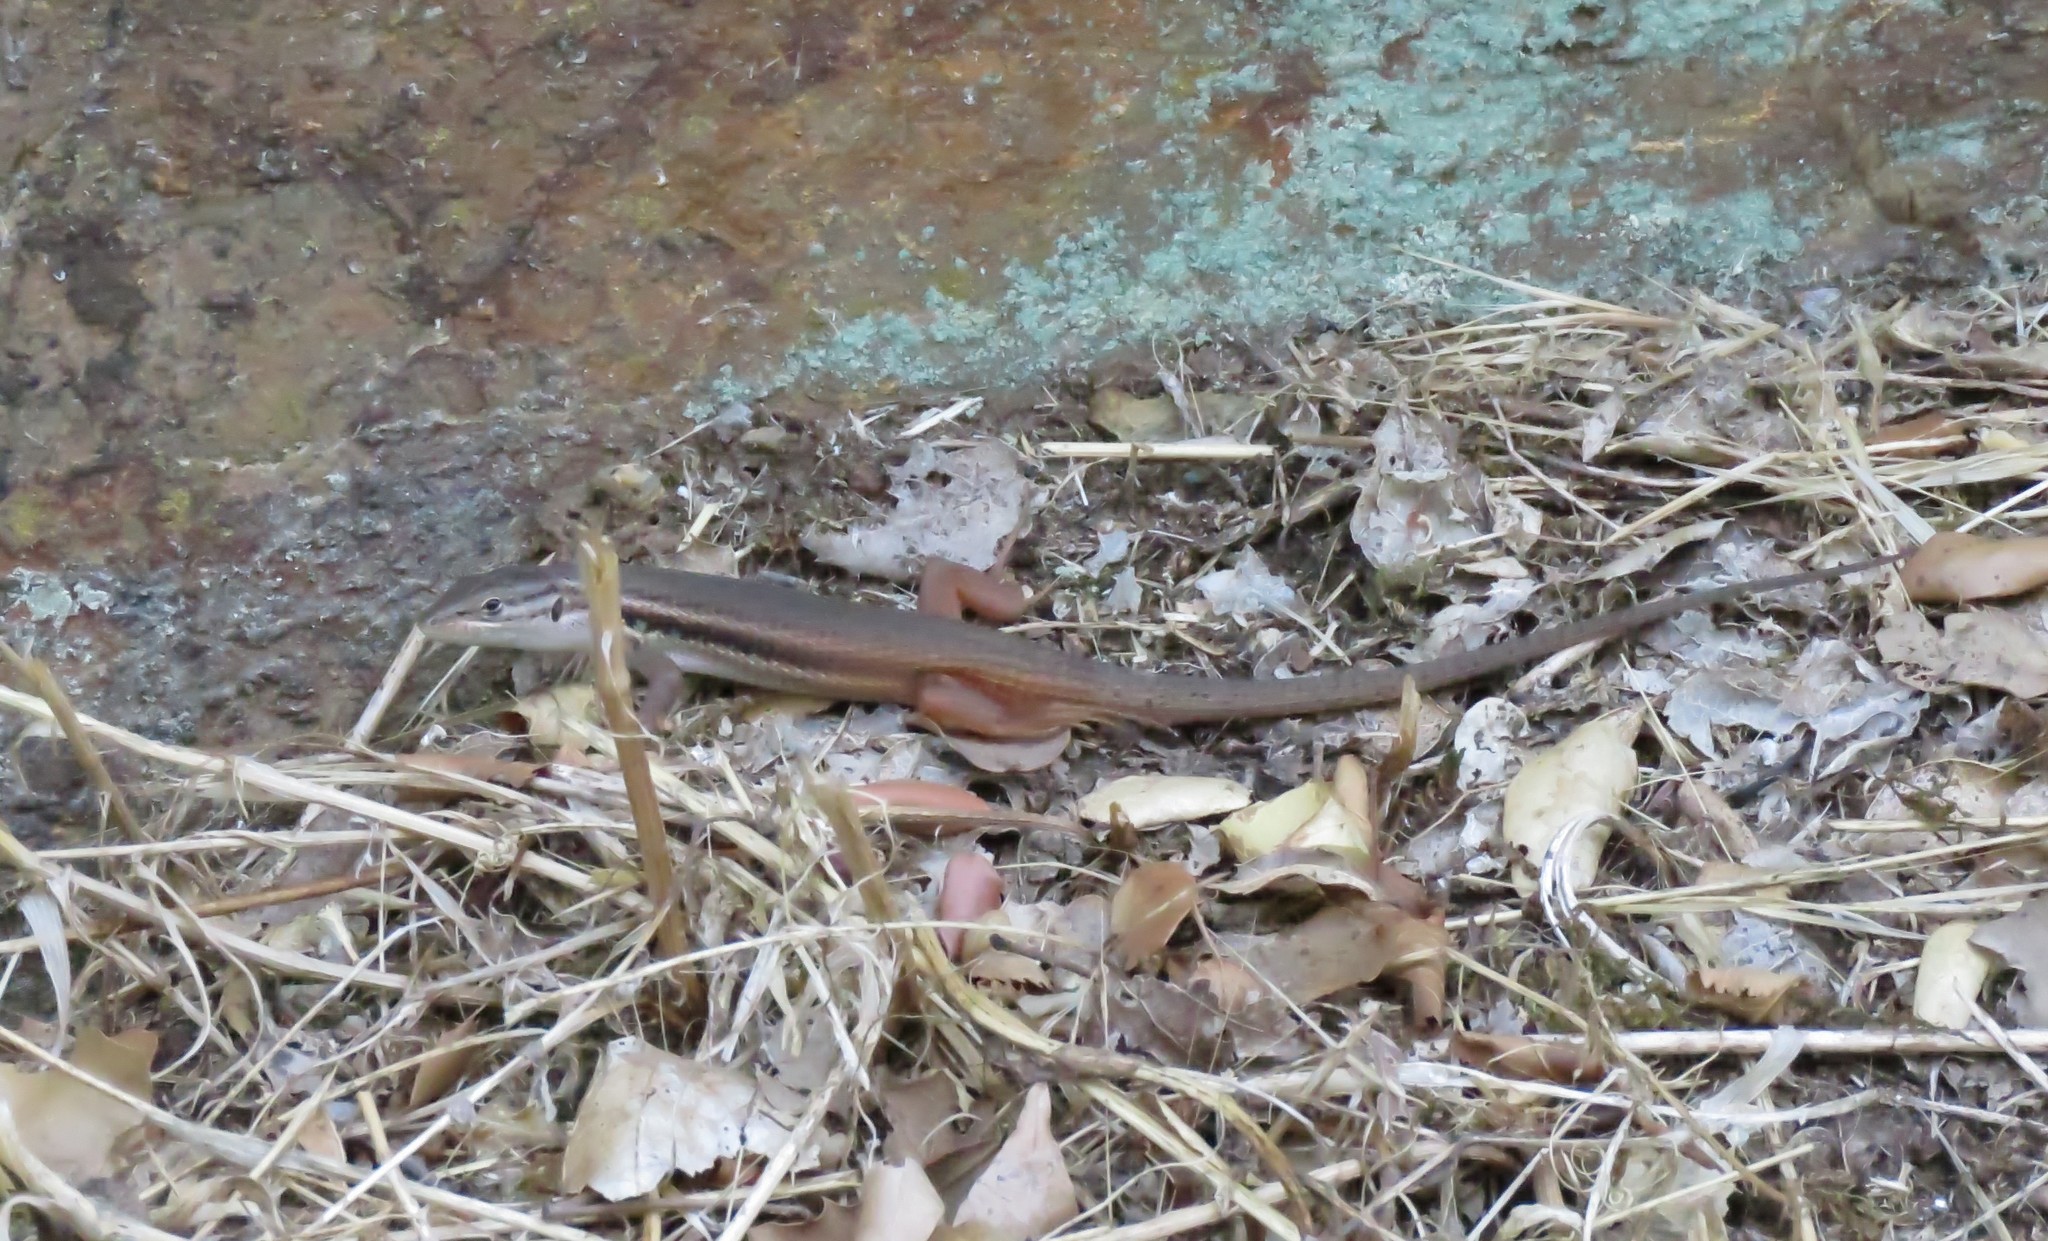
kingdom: Animalia
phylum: Chordata
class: Squamata
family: Lacertidae
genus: Psammodromus
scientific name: Psammodromus algirus
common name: Algerian psammodromus
